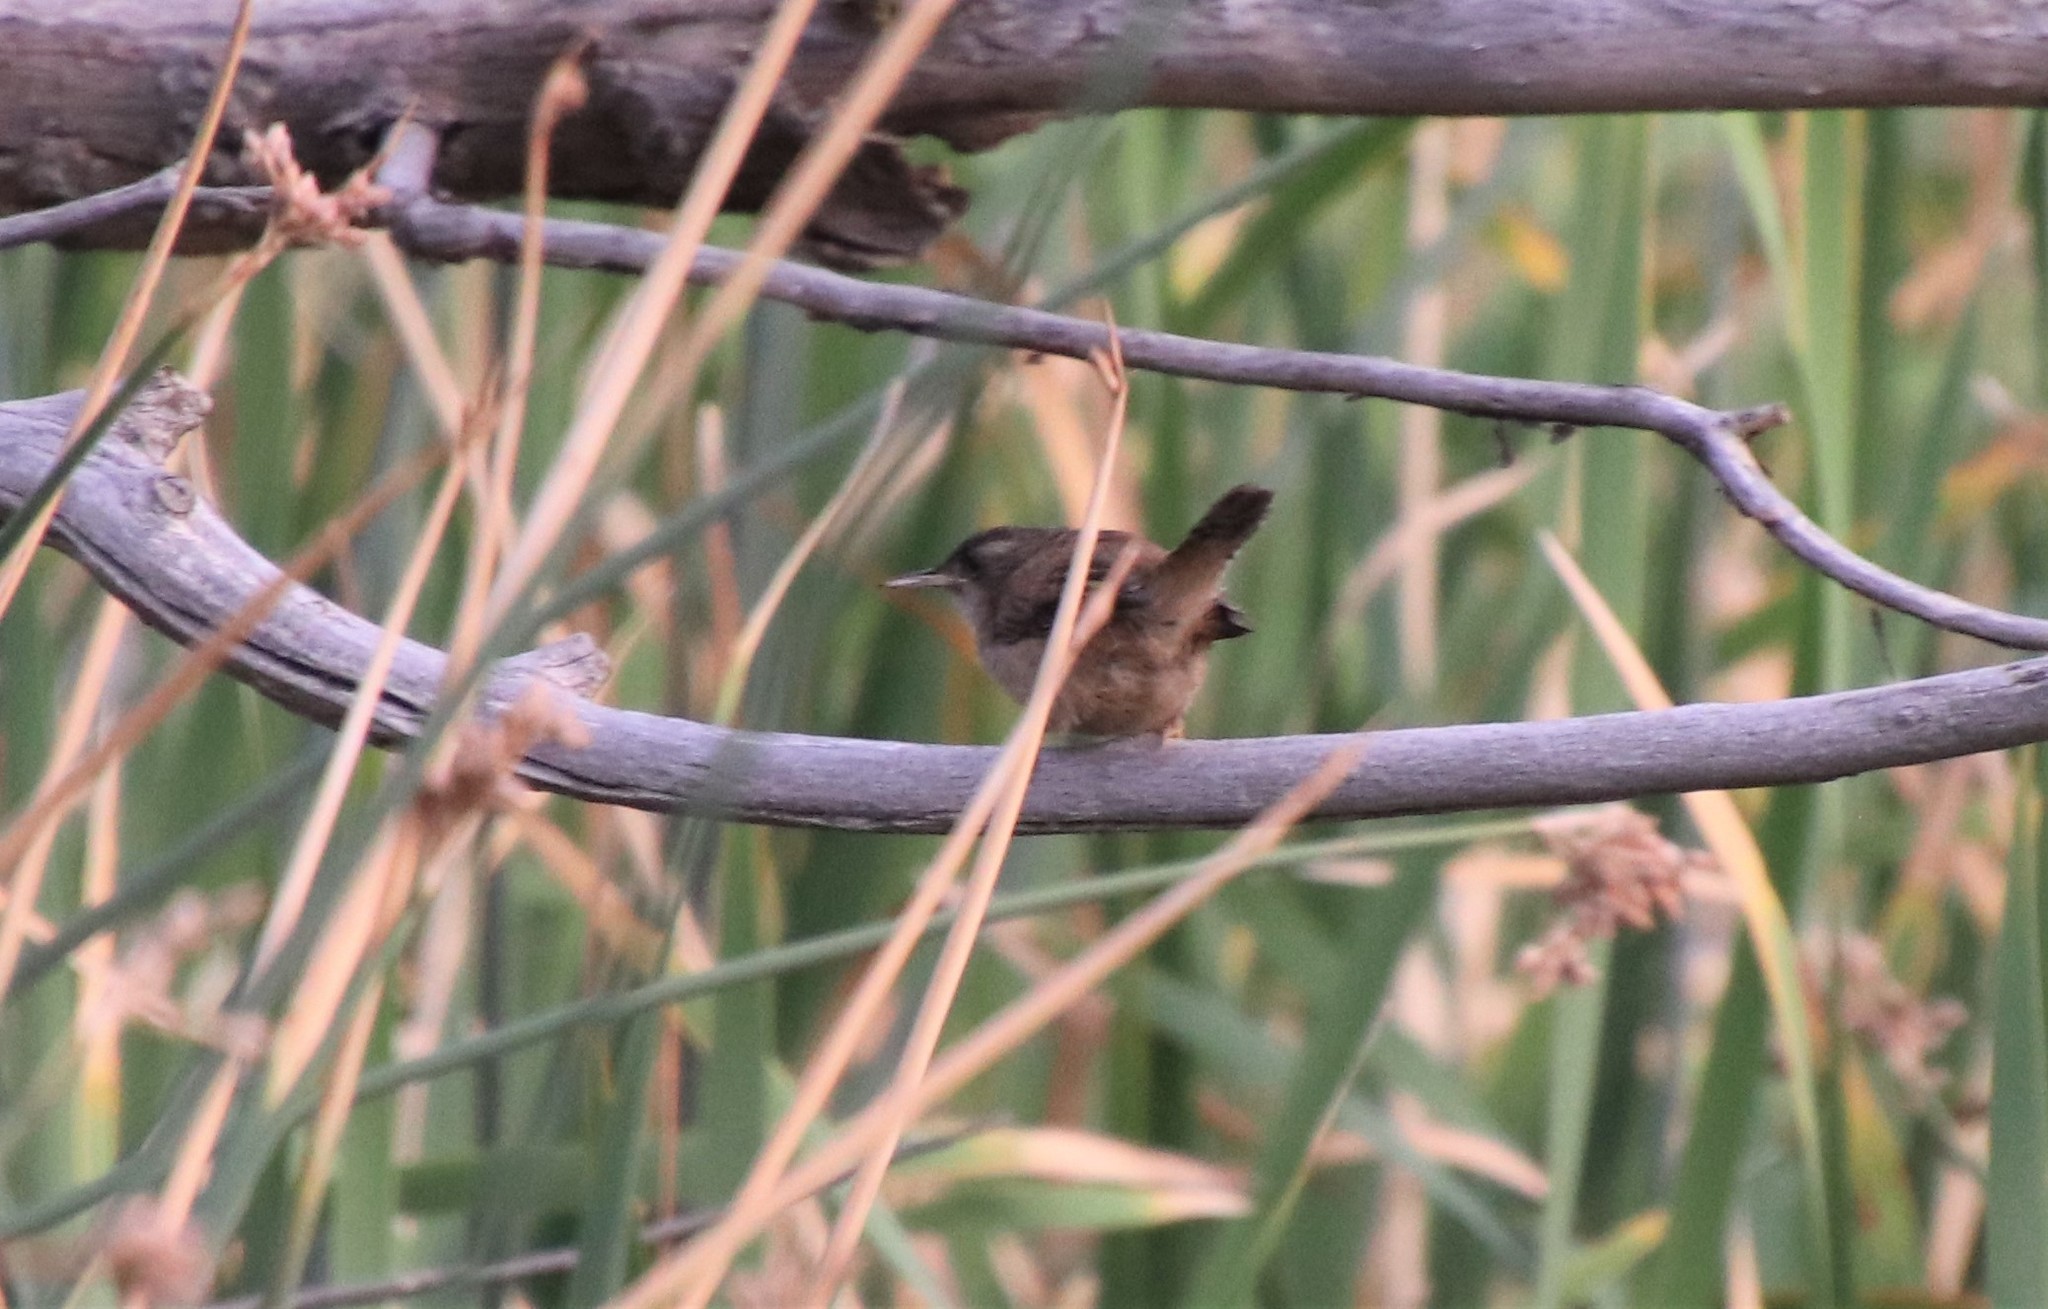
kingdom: Animalia
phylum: Chordata
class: Aves
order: Passeriformes
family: Troglodytidae
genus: Cistothorus
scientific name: Cistothorus palustris
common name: Marsh wren
